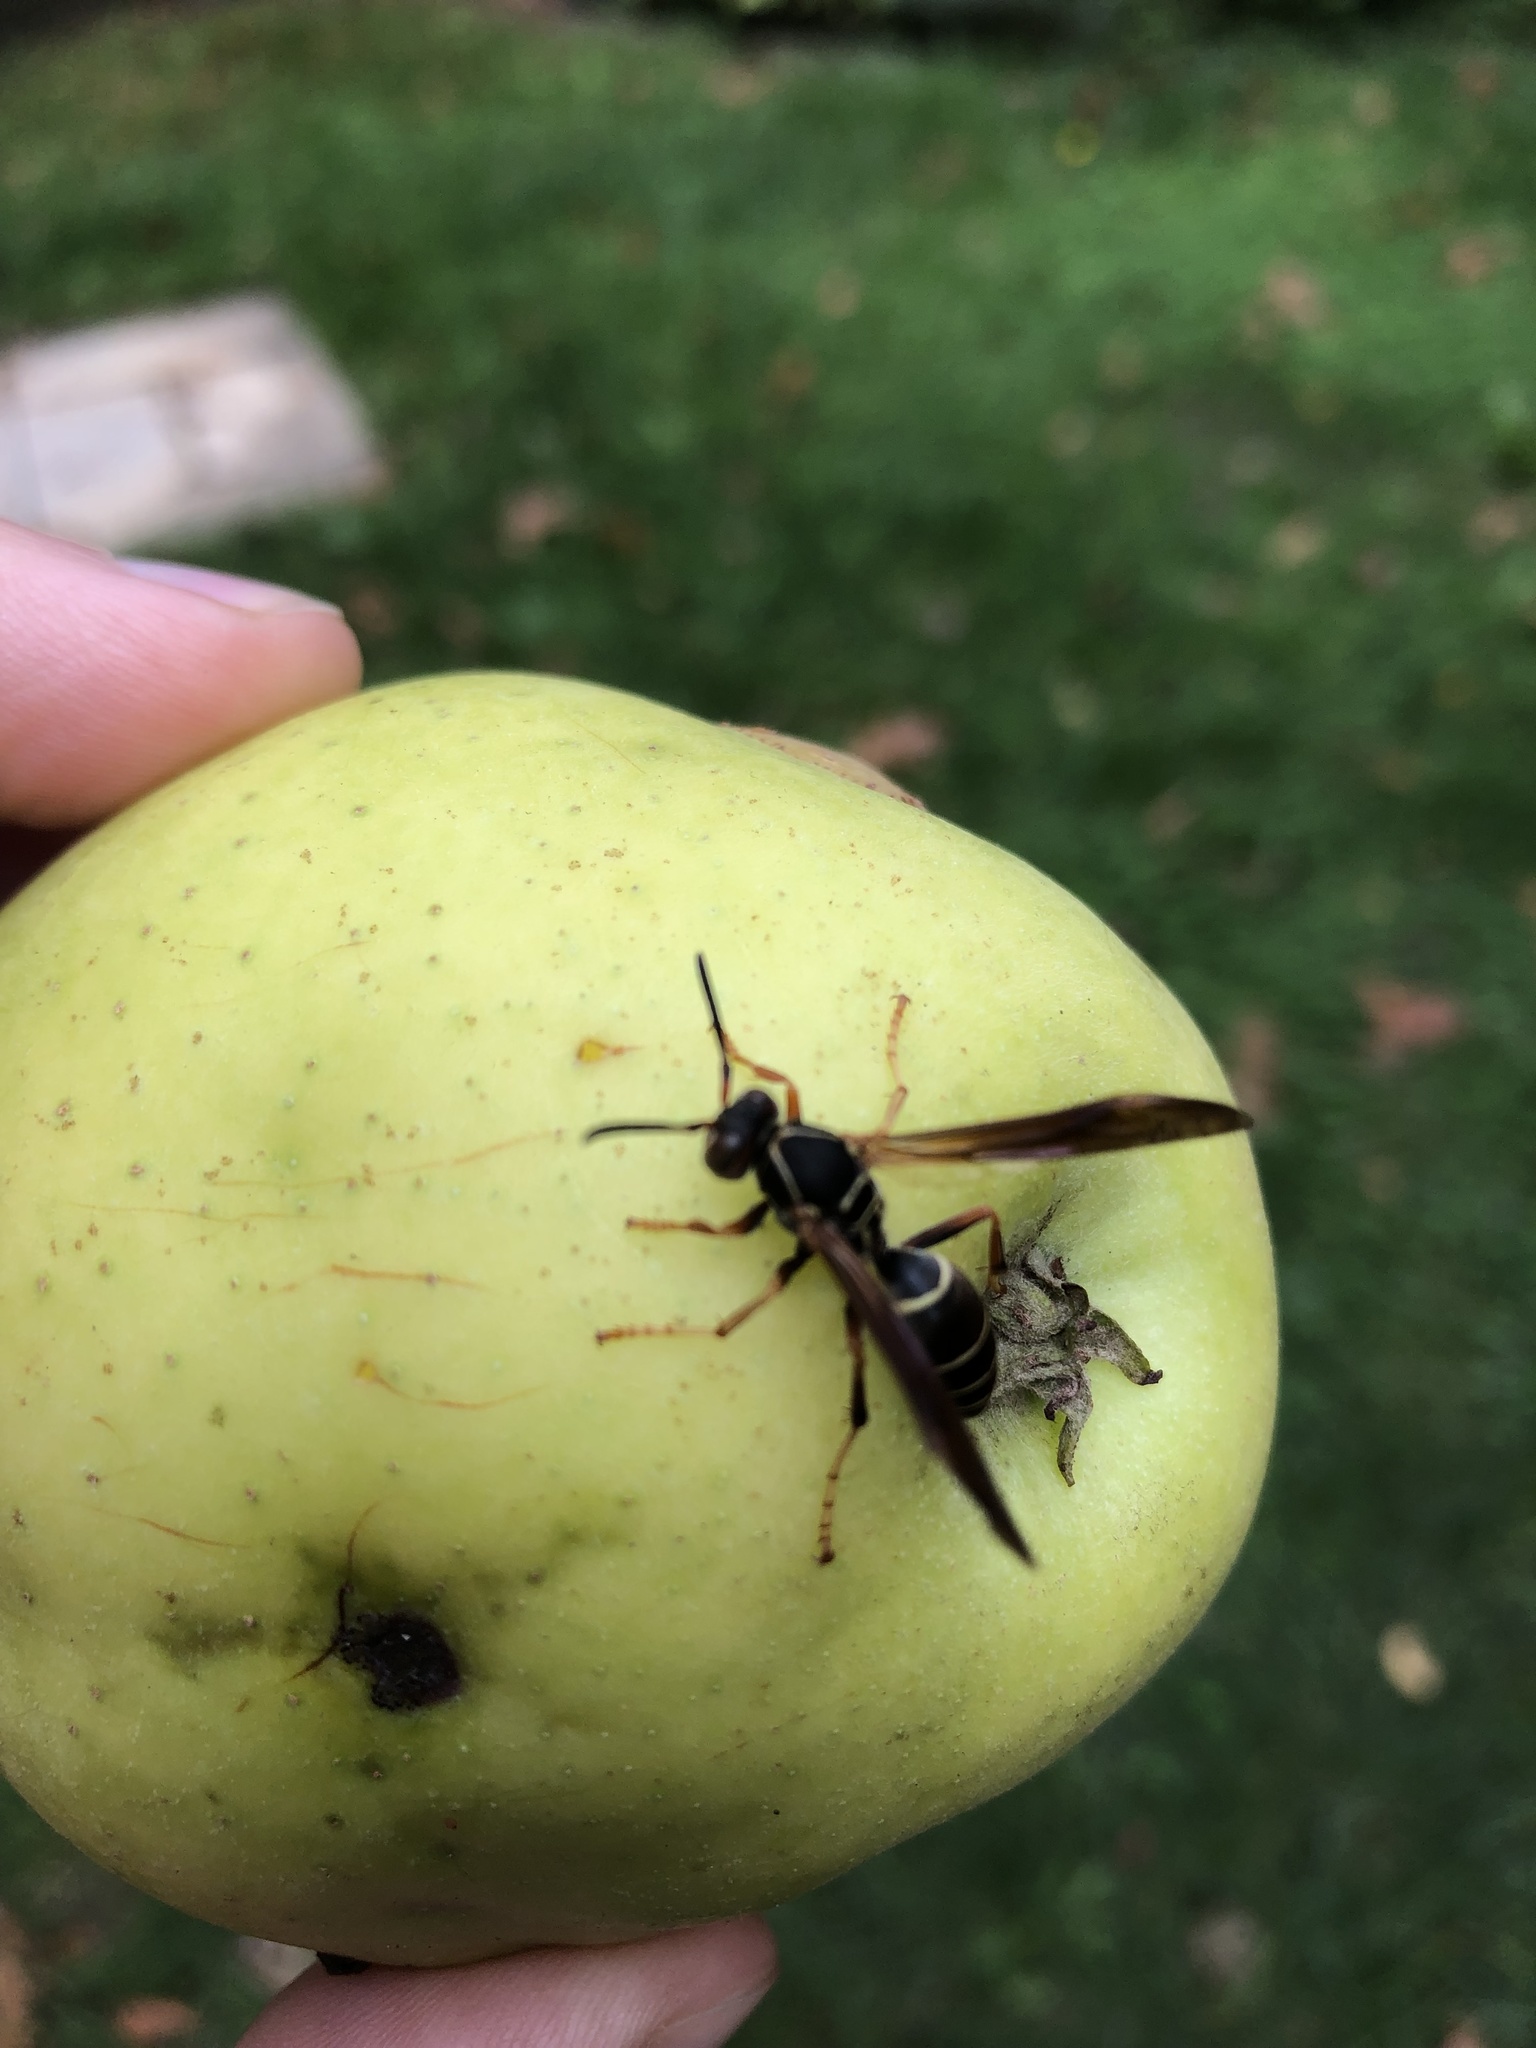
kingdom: Animalia
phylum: Arthropoda
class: Insecta
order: Hymenoptera
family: Eumenidae
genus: Polistes
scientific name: Polistes fuscatus
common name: Dark paper wasp
